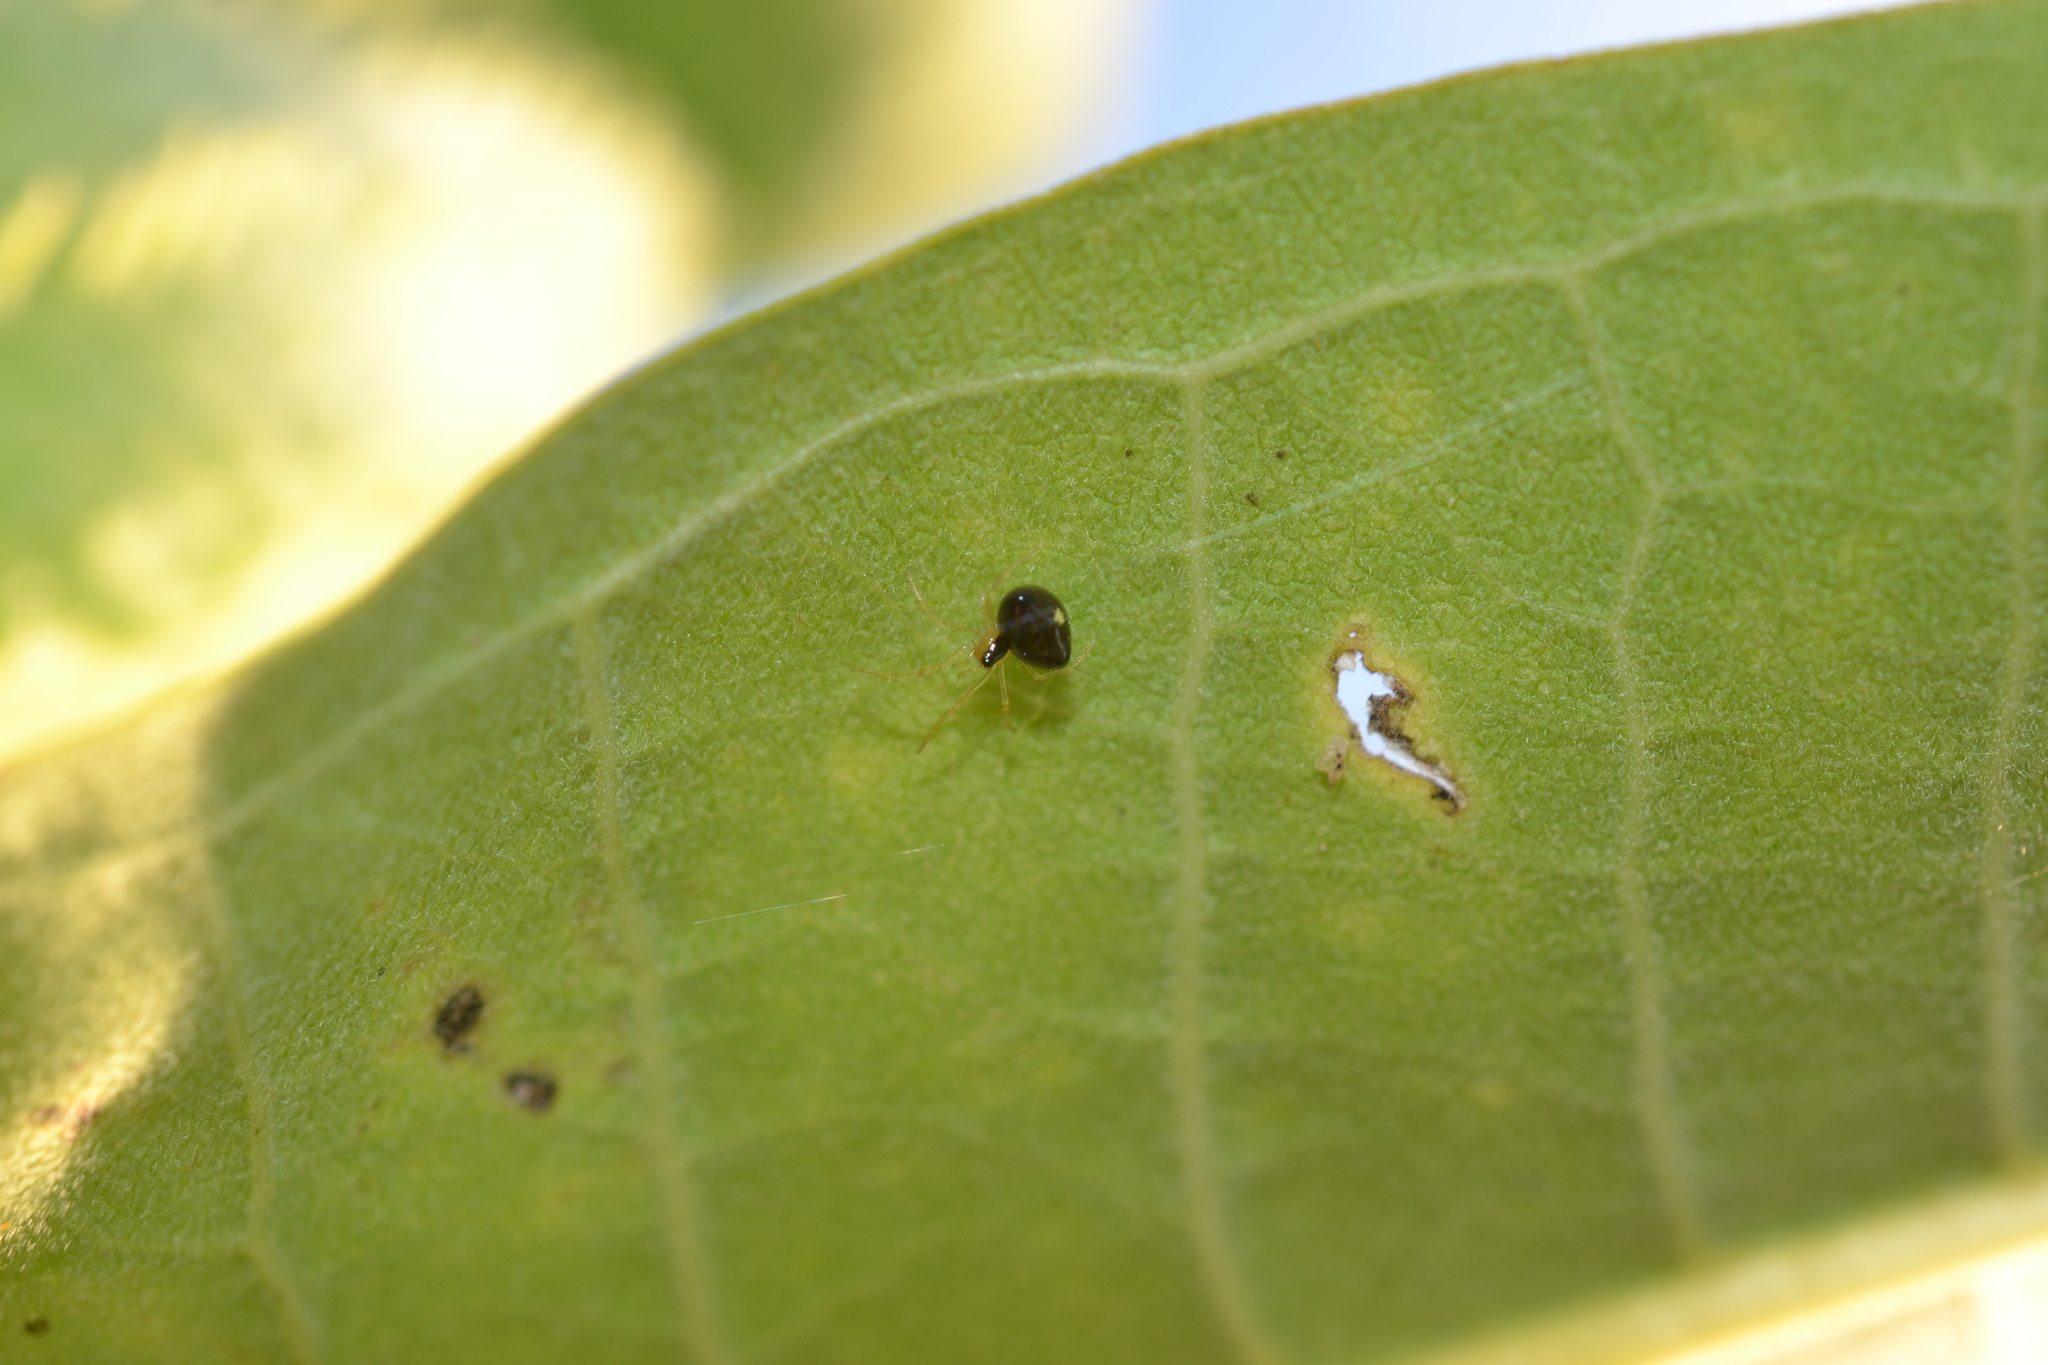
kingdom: Animalia
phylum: Arthropoda
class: Arachnida
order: Araneae
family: Theridiidae
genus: Theridula
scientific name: Theridula opulenta
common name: Cobweb spiders
